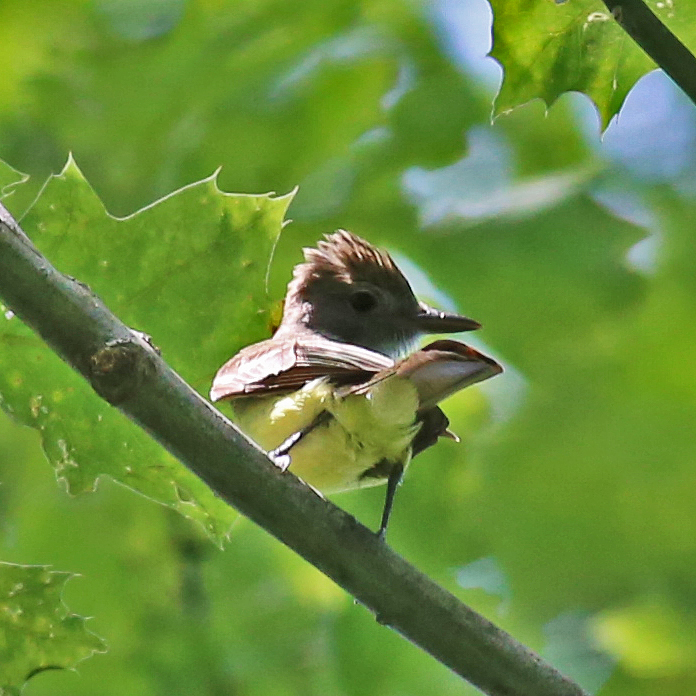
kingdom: Animalia
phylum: Chordata
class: Aves
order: Passeriformes
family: Tyrannidae
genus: Myiarchus
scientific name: Myiarchus crinitus
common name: Great crested flycatcher
